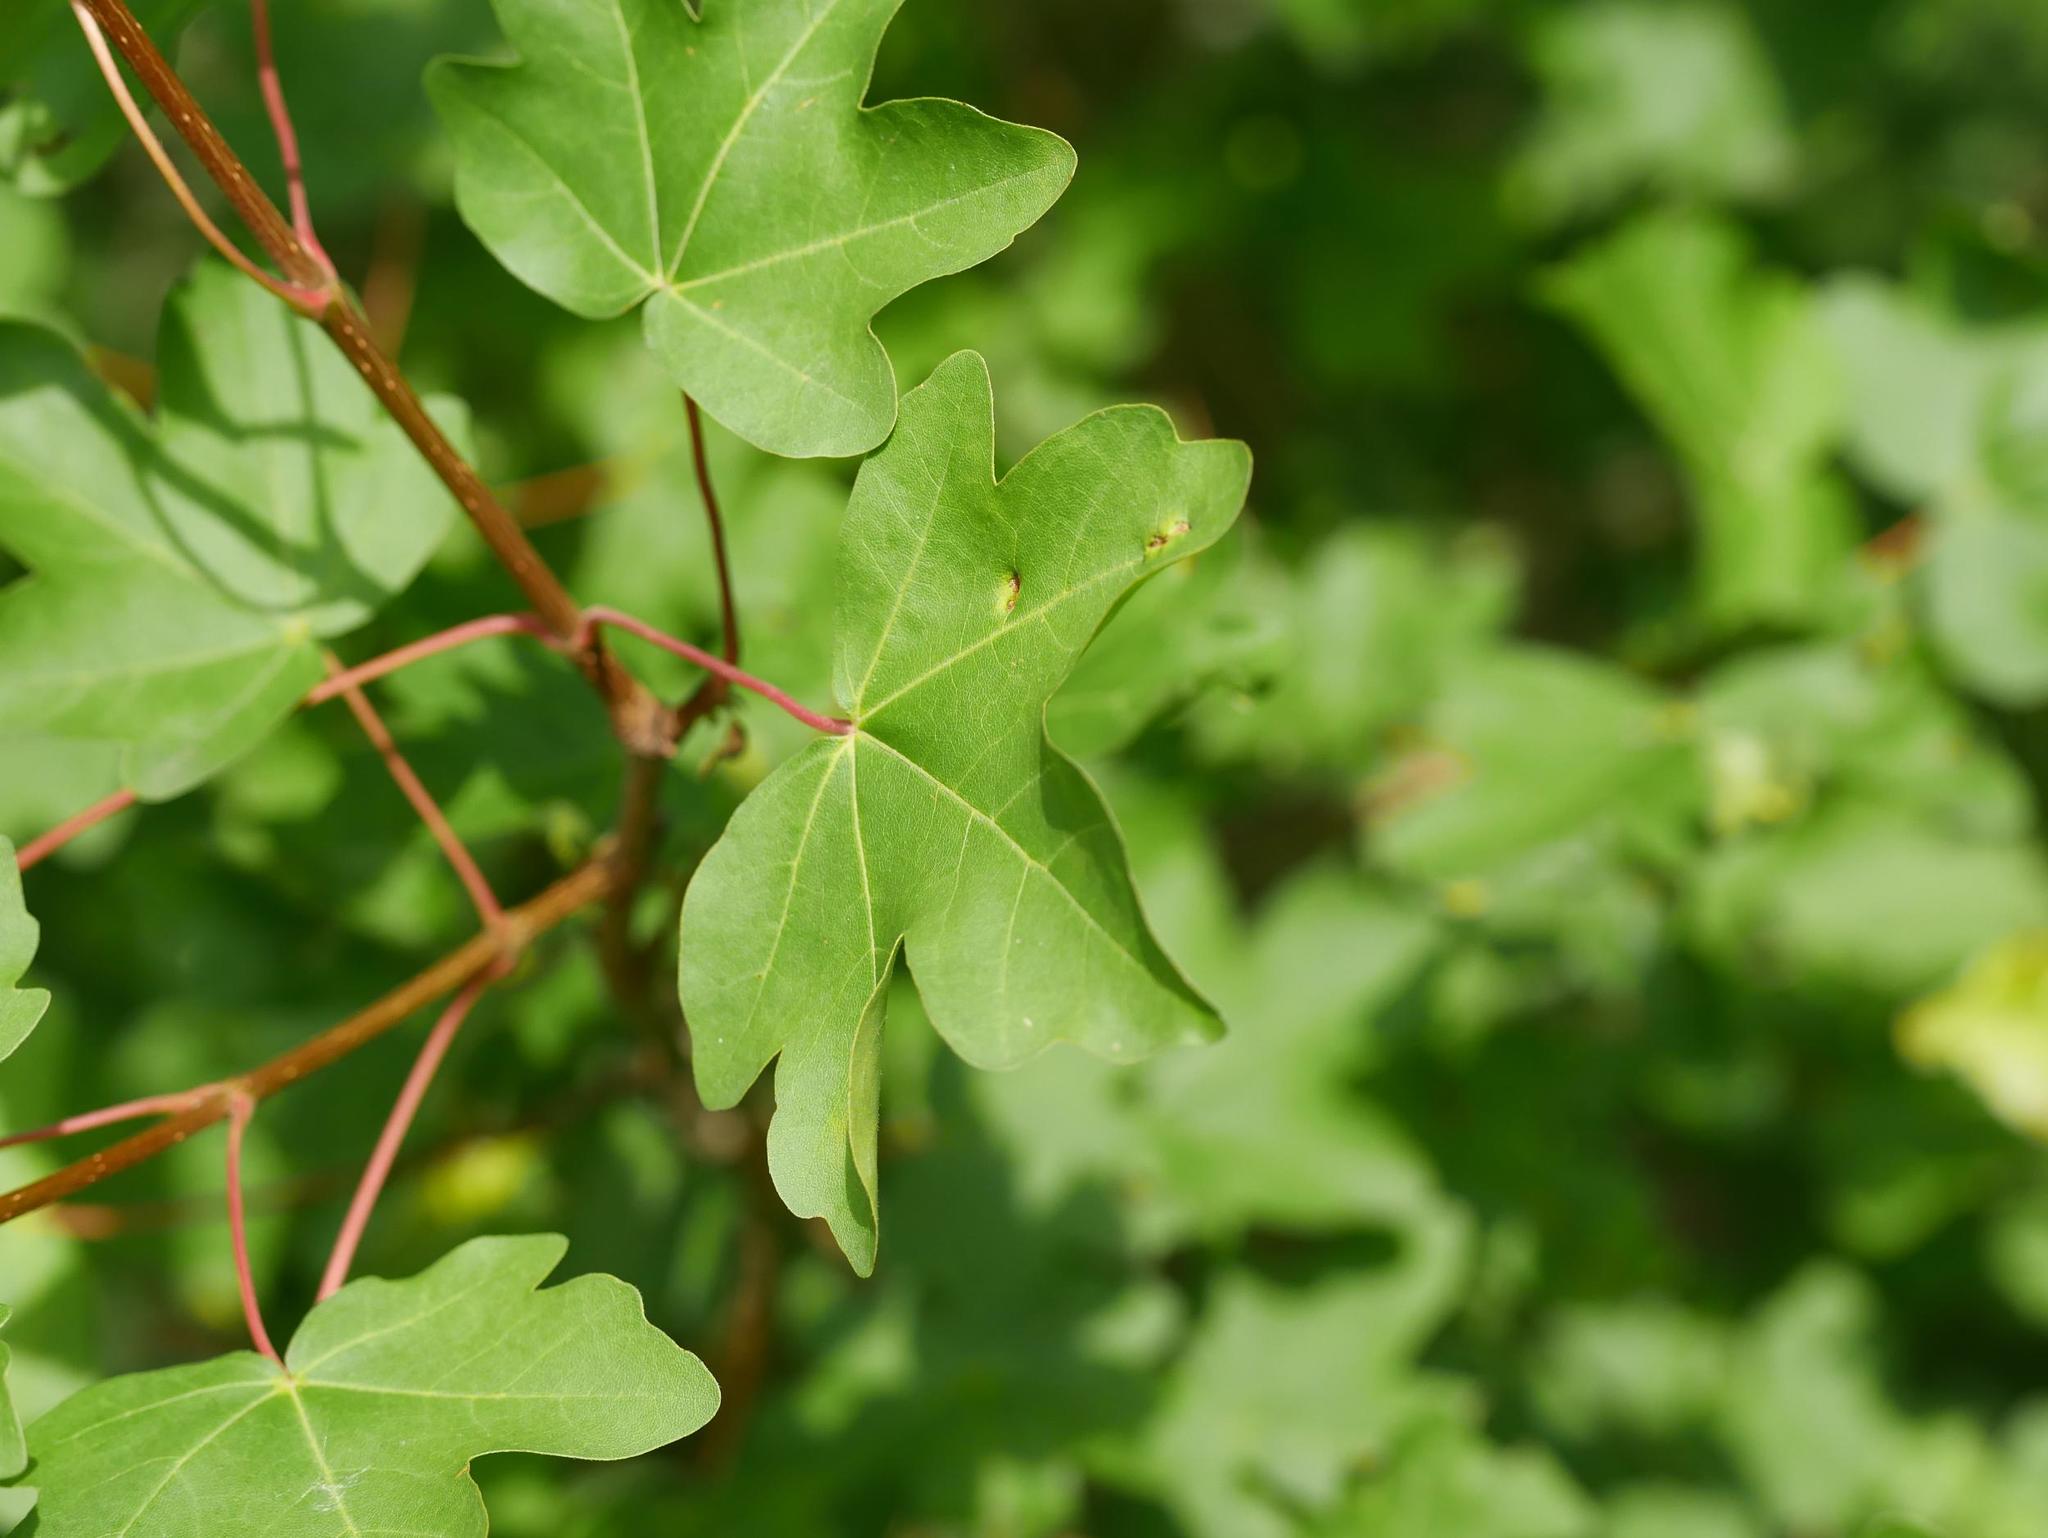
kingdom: Plantae
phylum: Tracheophyta
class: Magnoliopsida
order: Sapindales
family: Sapindaceae
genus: Acer
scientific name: Acer campestre
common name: Field maple
